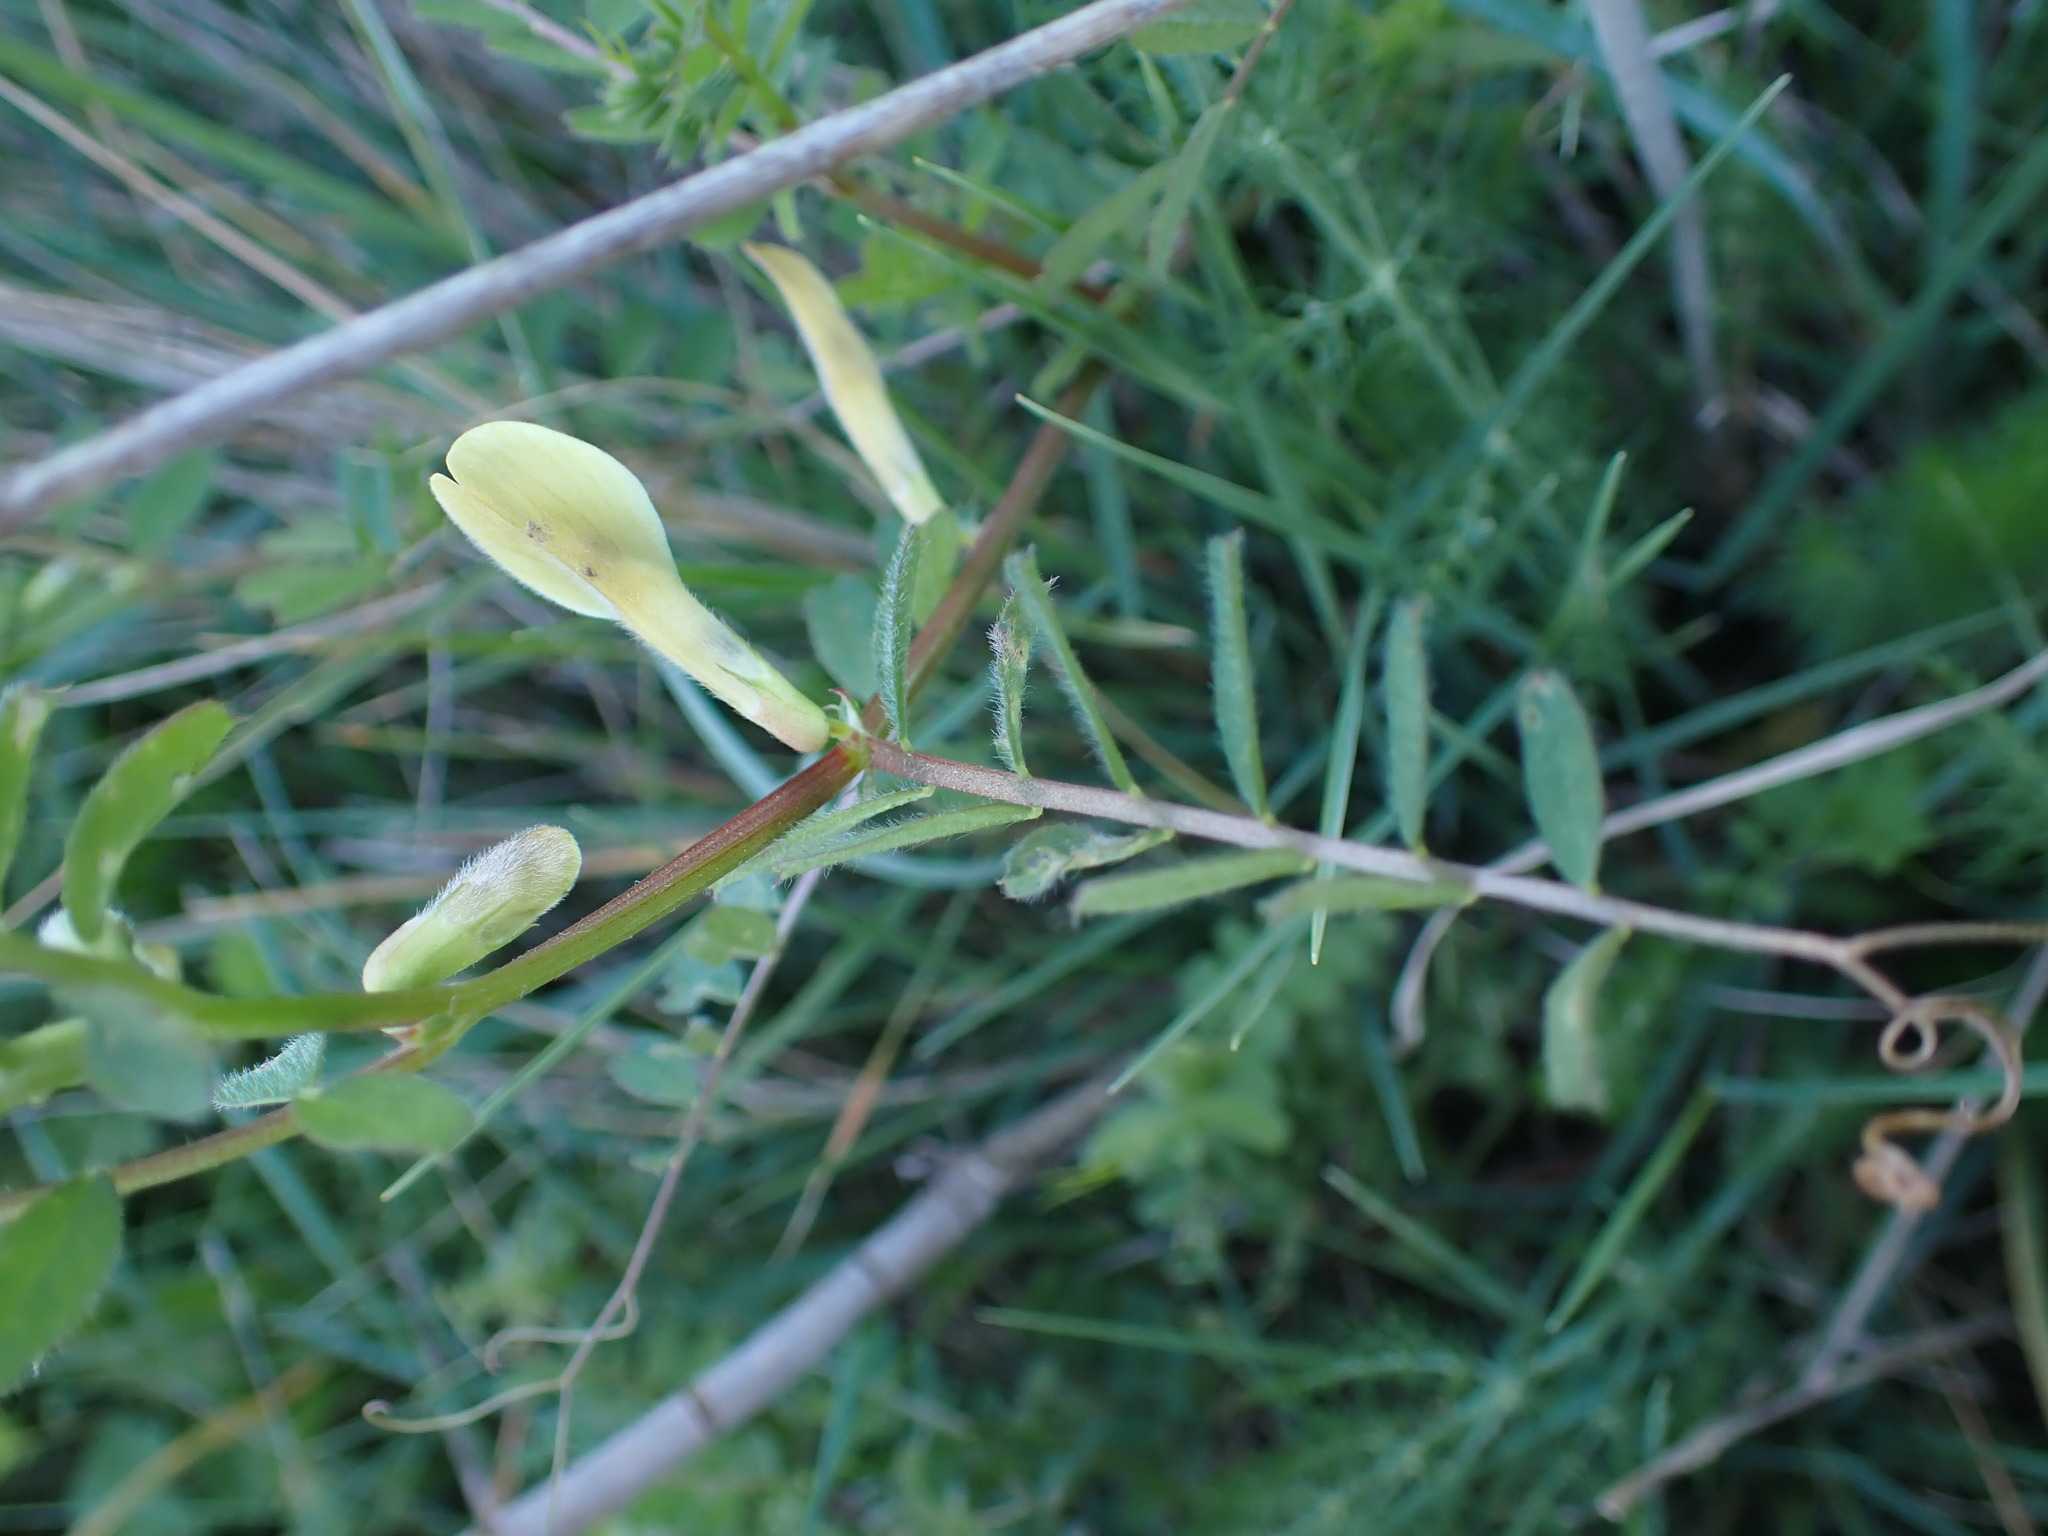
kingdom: Plantae
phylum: Tracheophyta
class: Magnoliopsida
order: Fabales
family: Fabaceae
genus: Vicia
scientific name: Vicia hybrida
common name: Hairy yellow vetch
